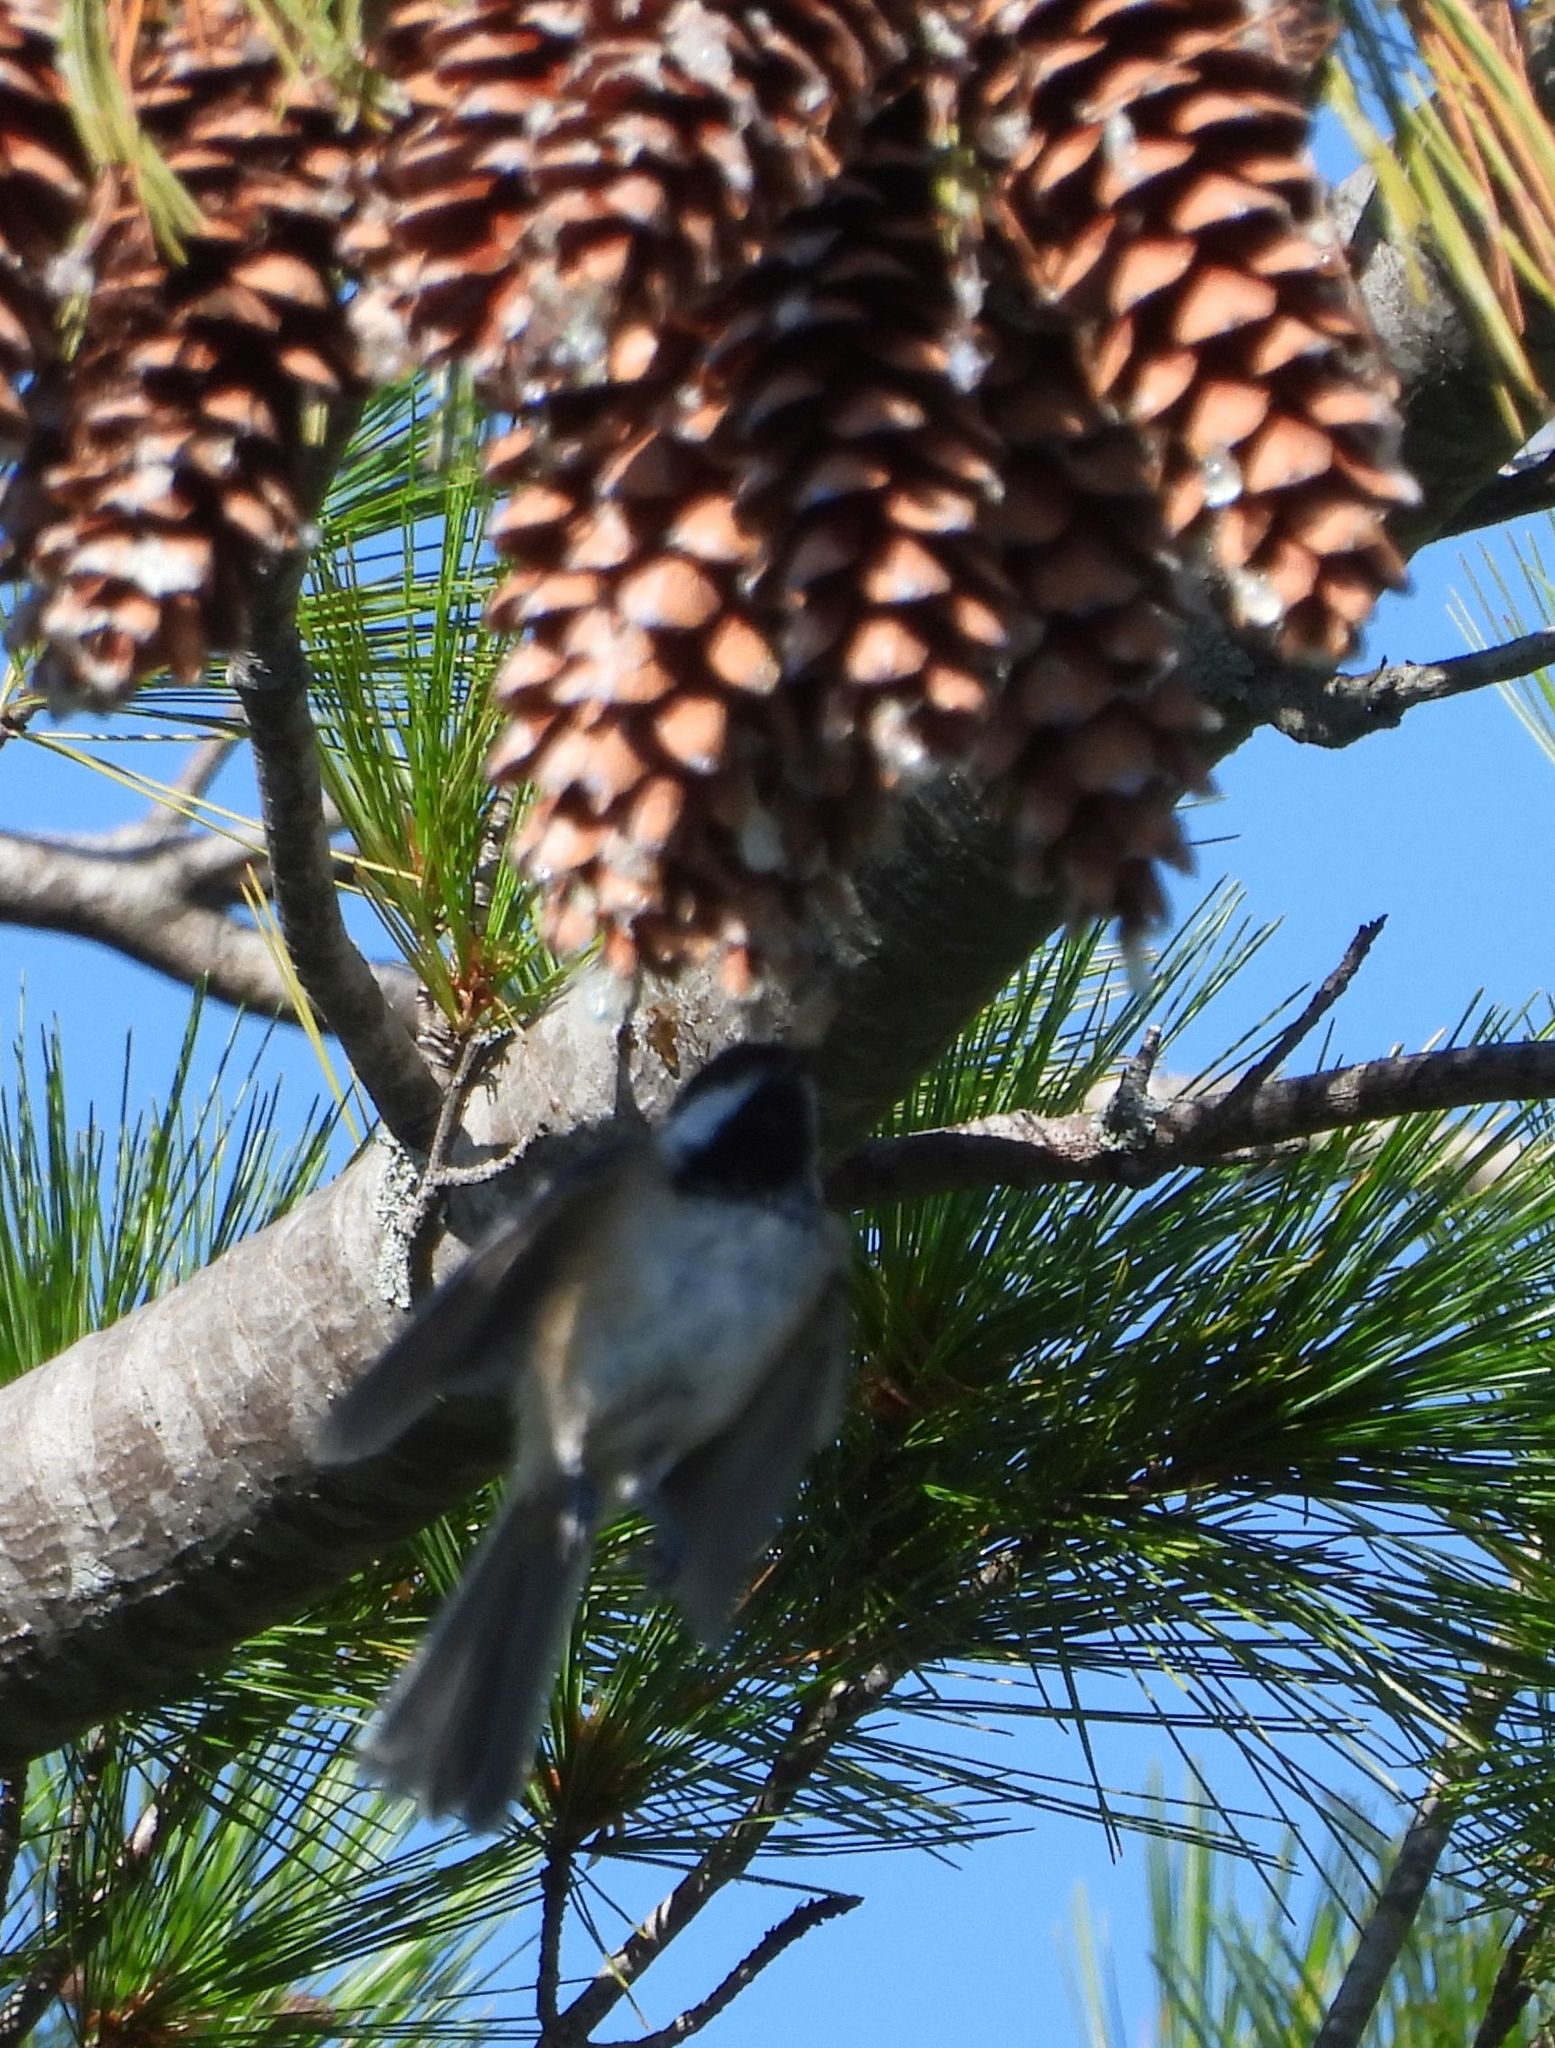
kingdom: Animalia
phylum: Chordata
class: Aves
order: Passeriformes
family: Paridae
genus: Poecile
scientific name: Poecile atricapillus
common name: Black-capped chickadee
